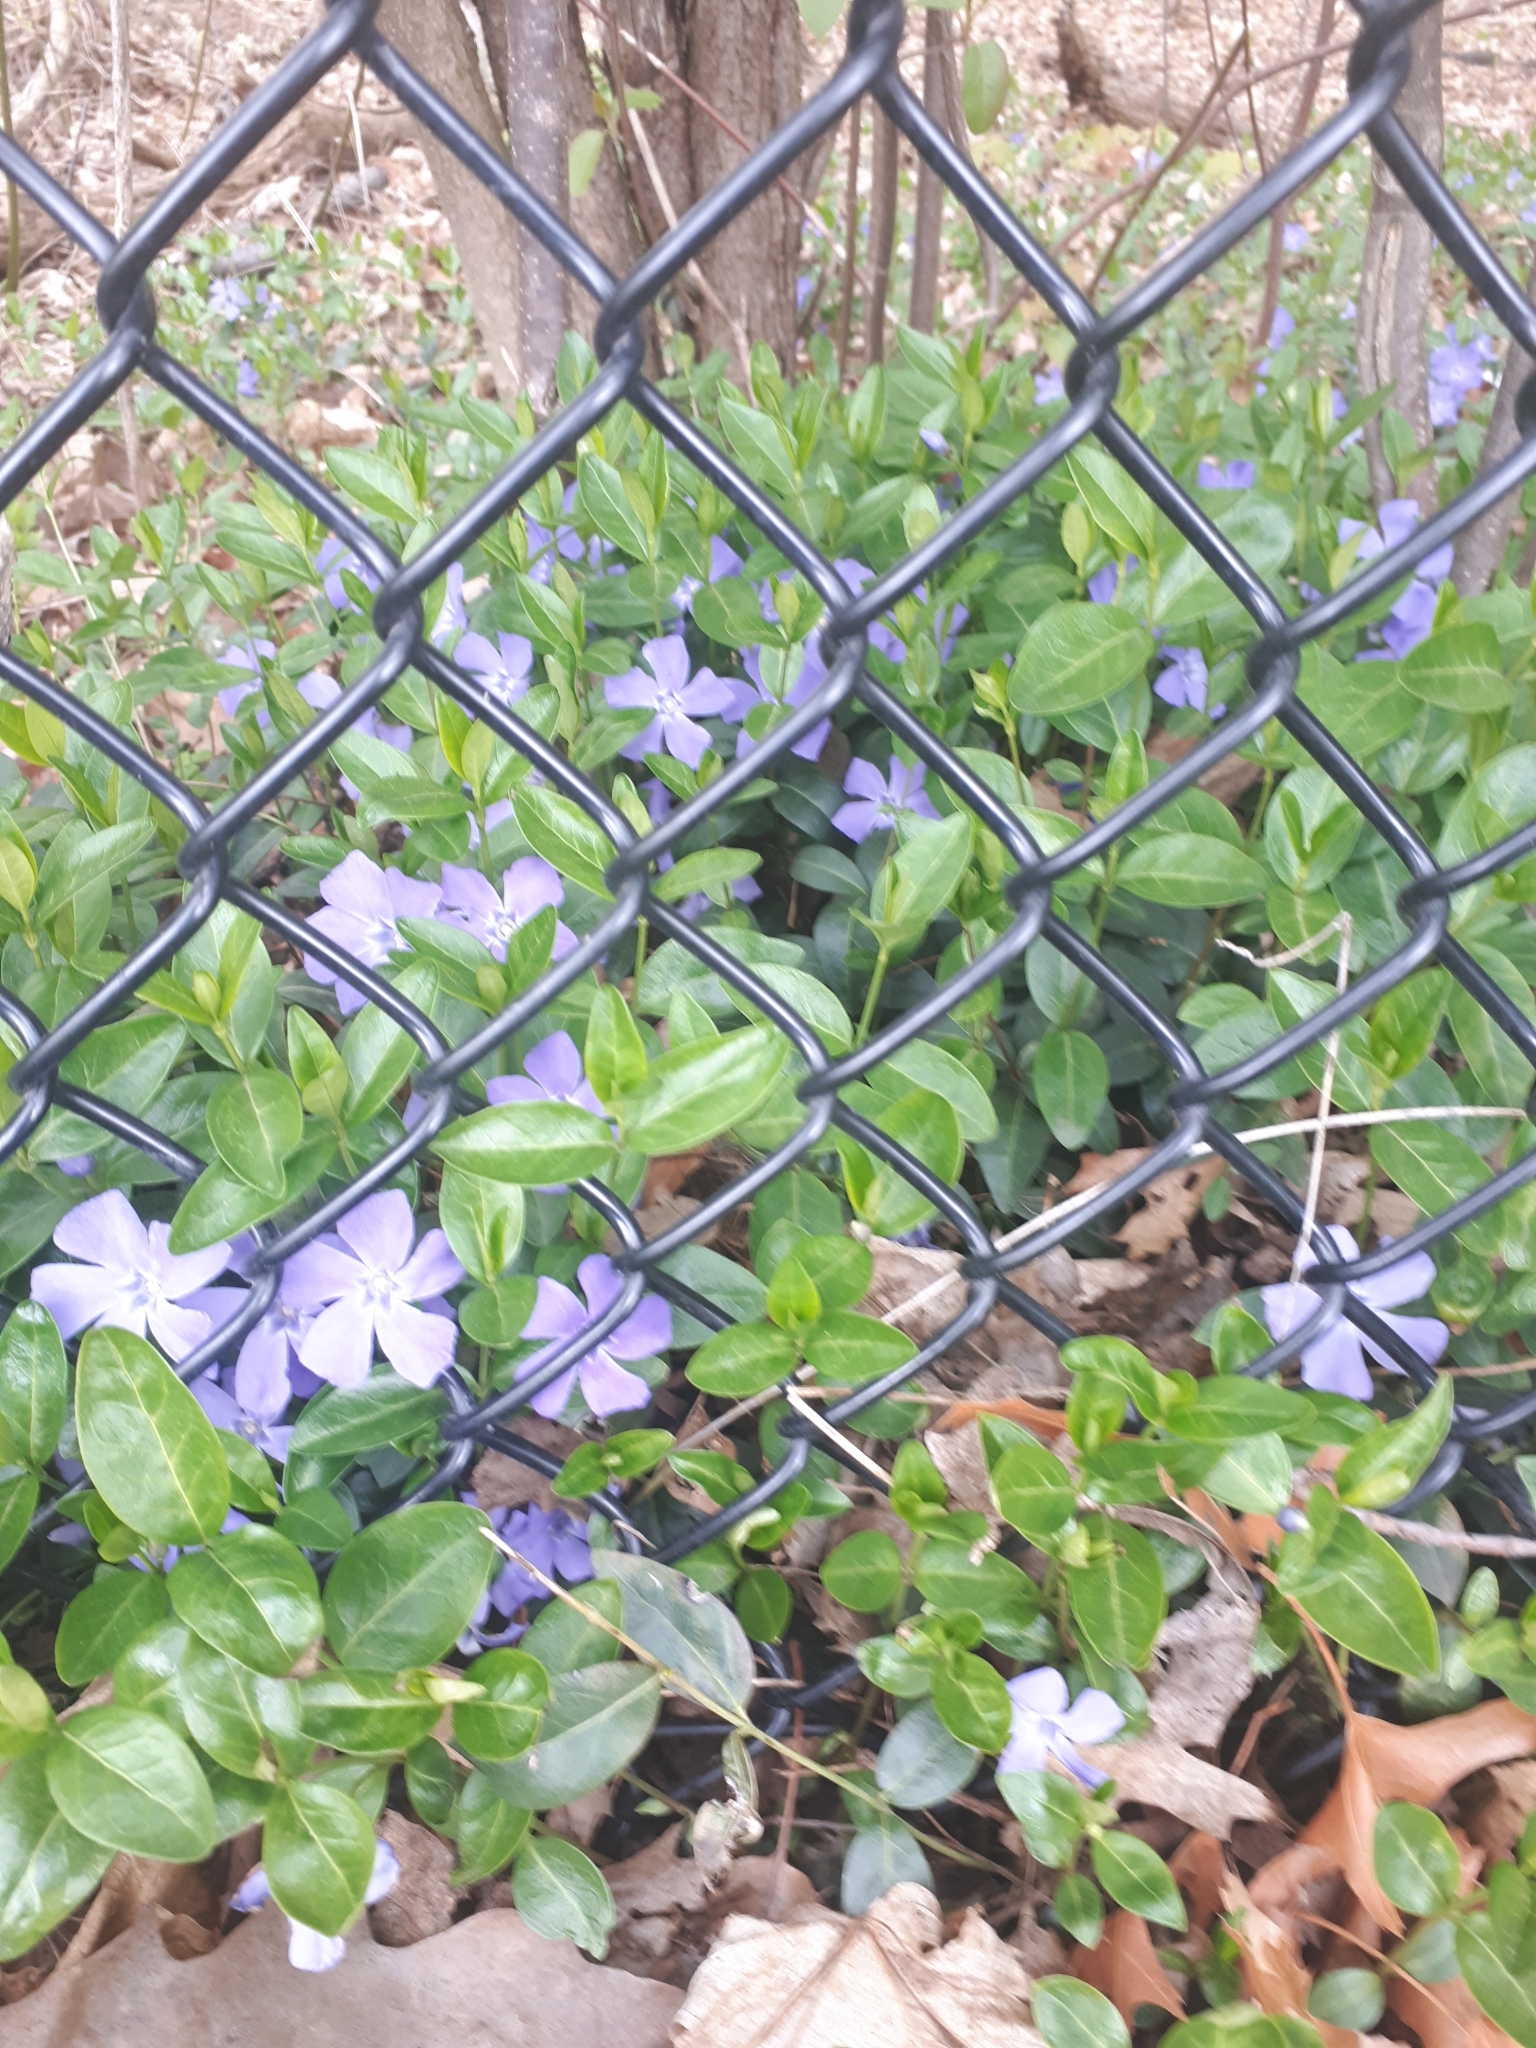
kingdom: Plantae
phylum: Tracheophyta
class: Magnoliopsida
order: Gentianales
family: Apocynaceae
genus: Vinca
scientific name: Vinca minor
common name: Lesser periwinkle
